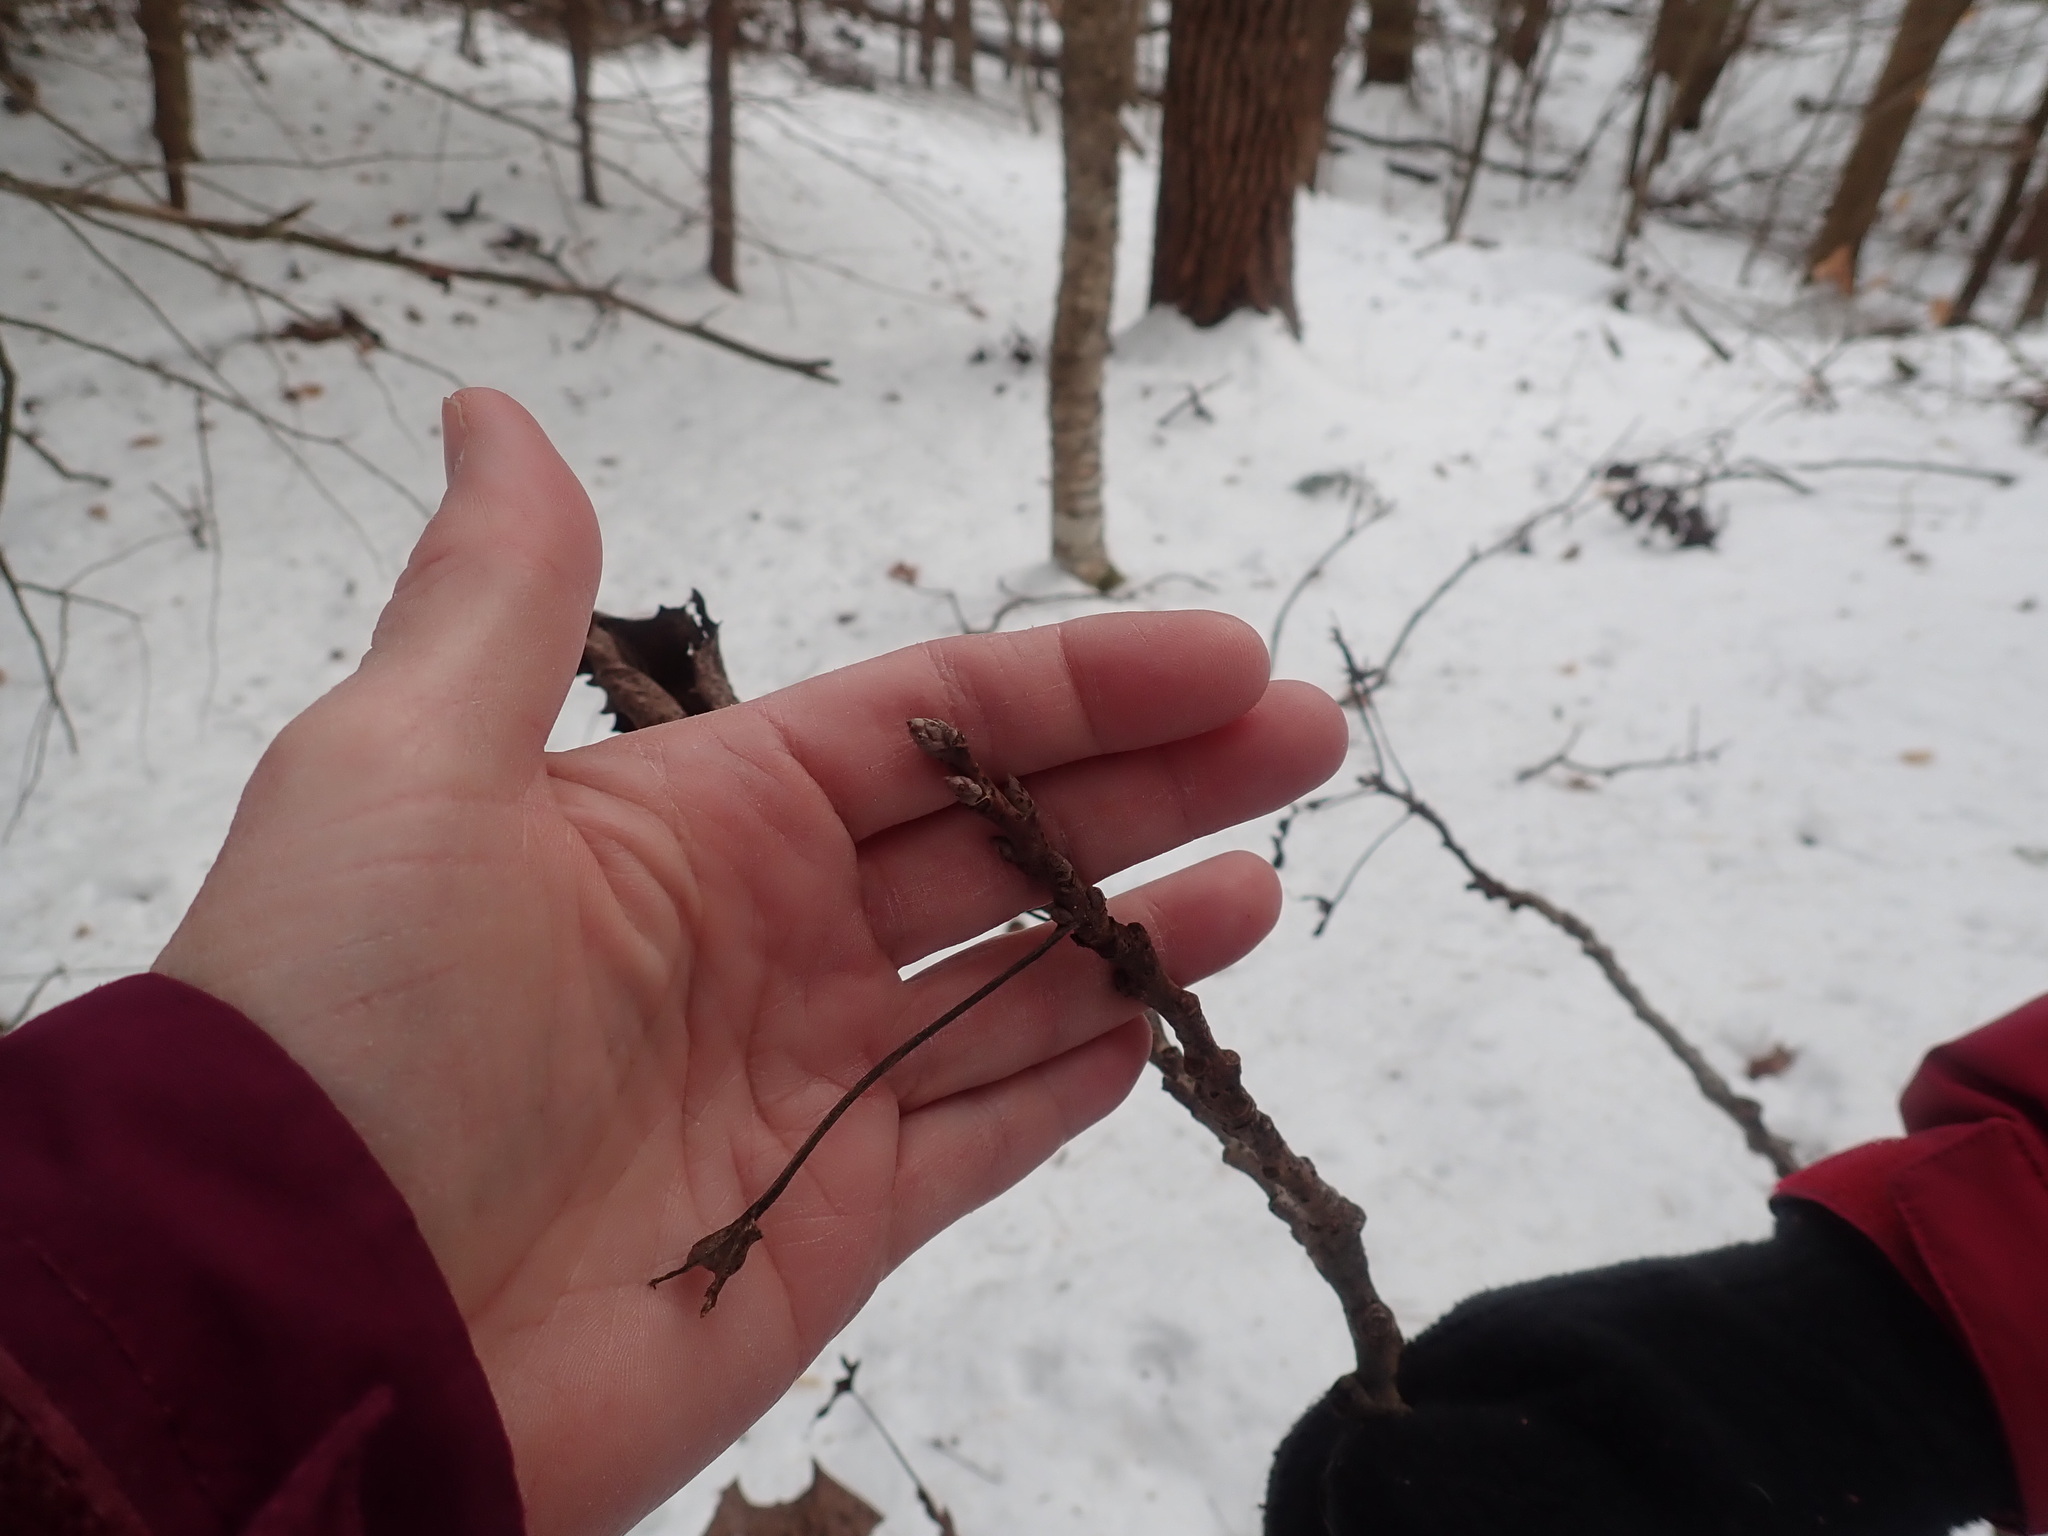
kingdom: Plantae
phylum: Tracheophyta
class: Magnoliopsida
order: Malpighiales
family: Salicaceae
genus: Populus
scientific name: Populus grandidentata
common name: Bigtooth aspen
